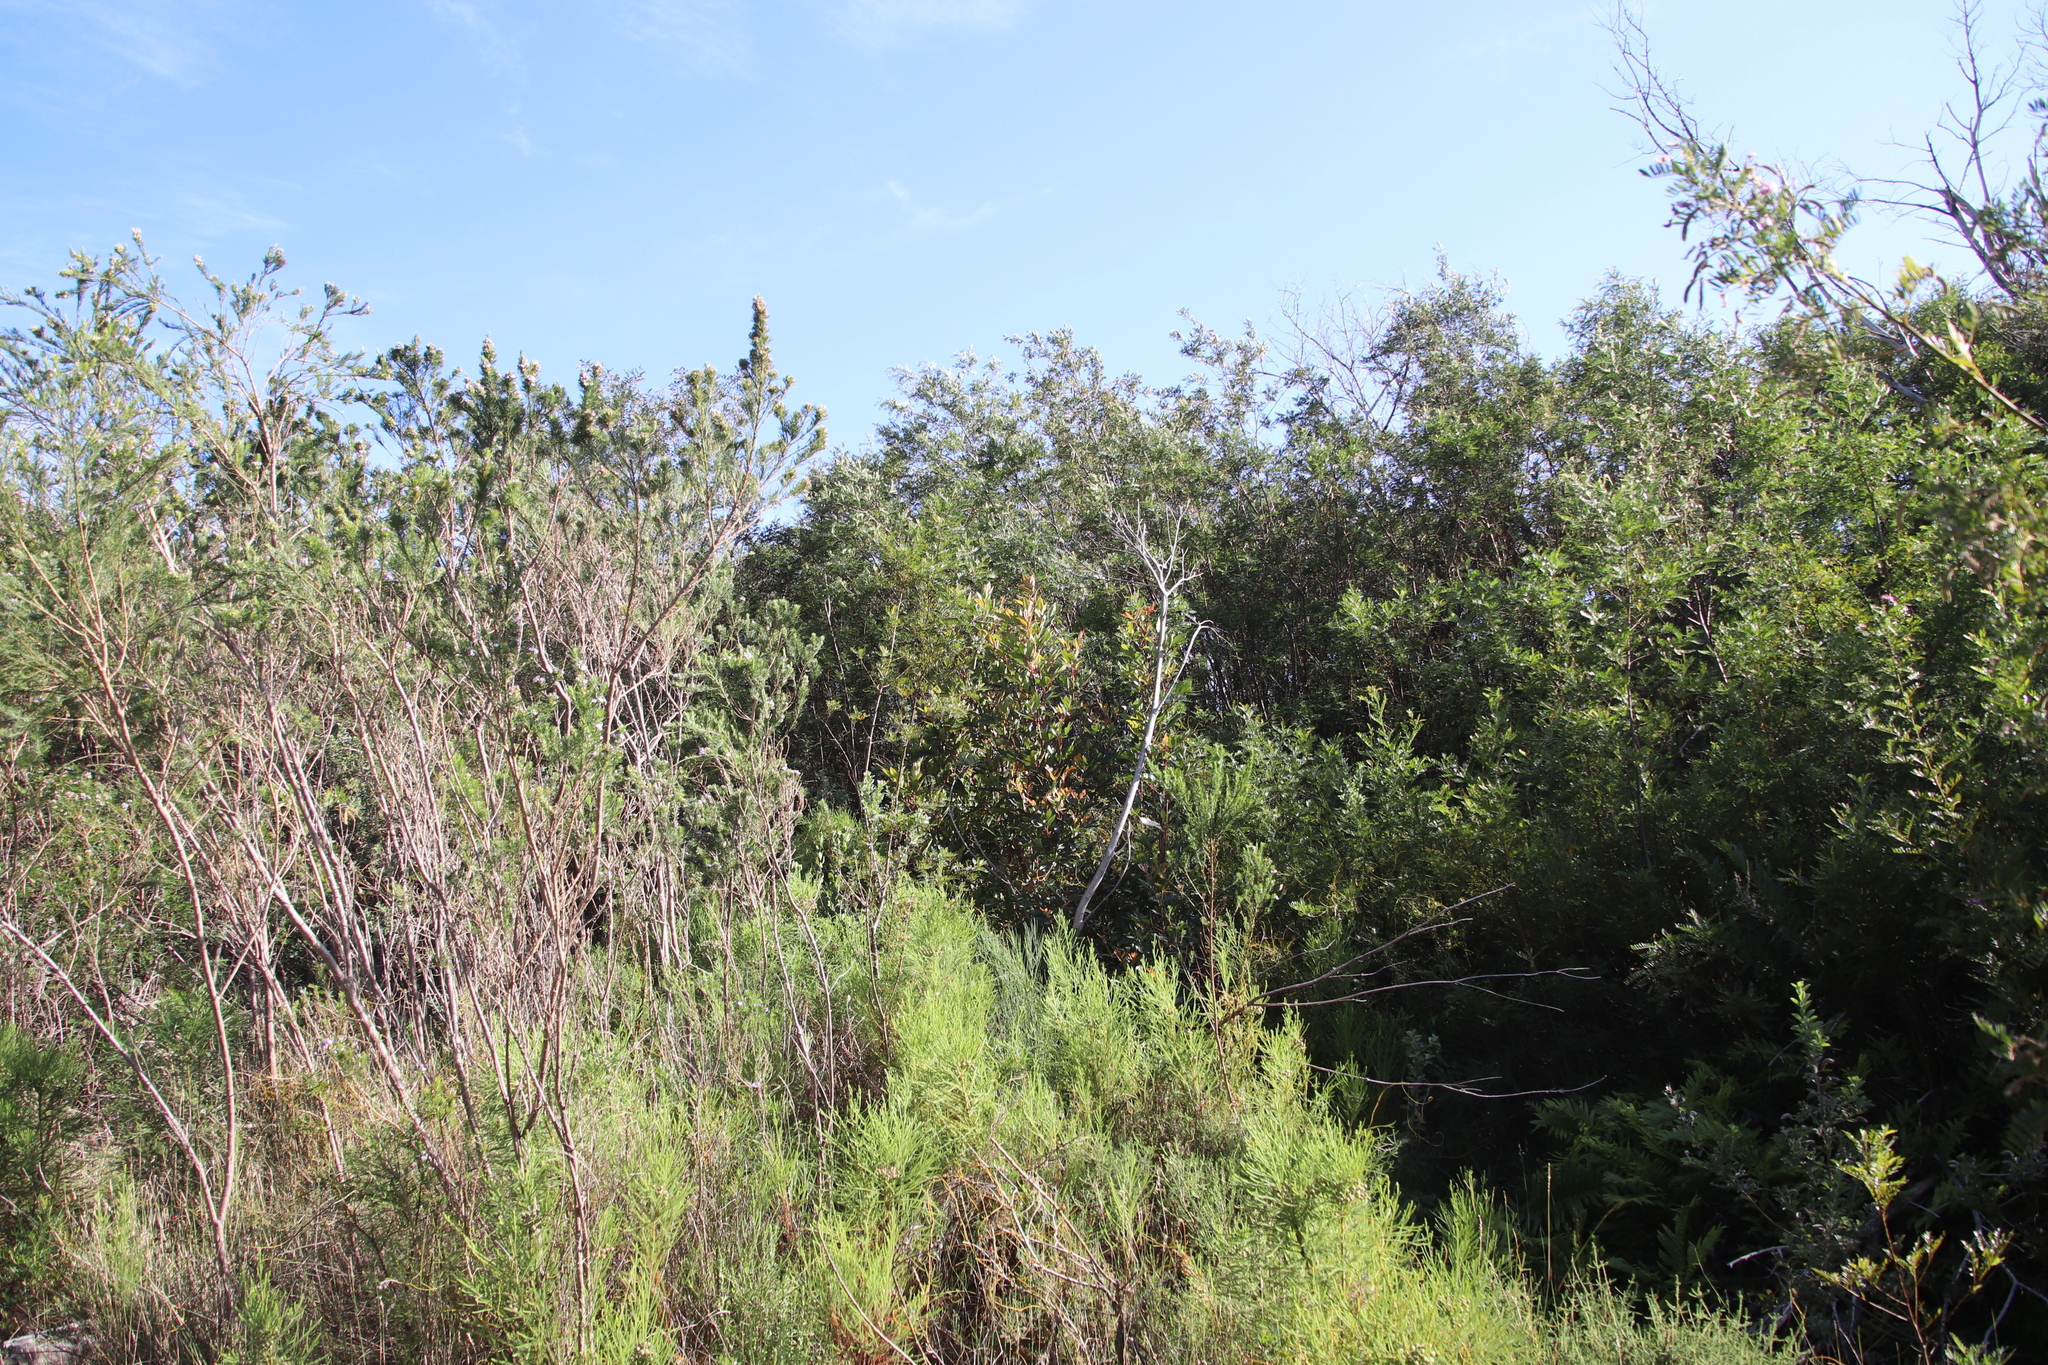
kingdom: Plantae
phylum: Tracheophyta
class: Magnoliopsida
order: Oxalidales
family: Cunoniaceae
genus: Cunonia
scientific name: Cunonia capensis
